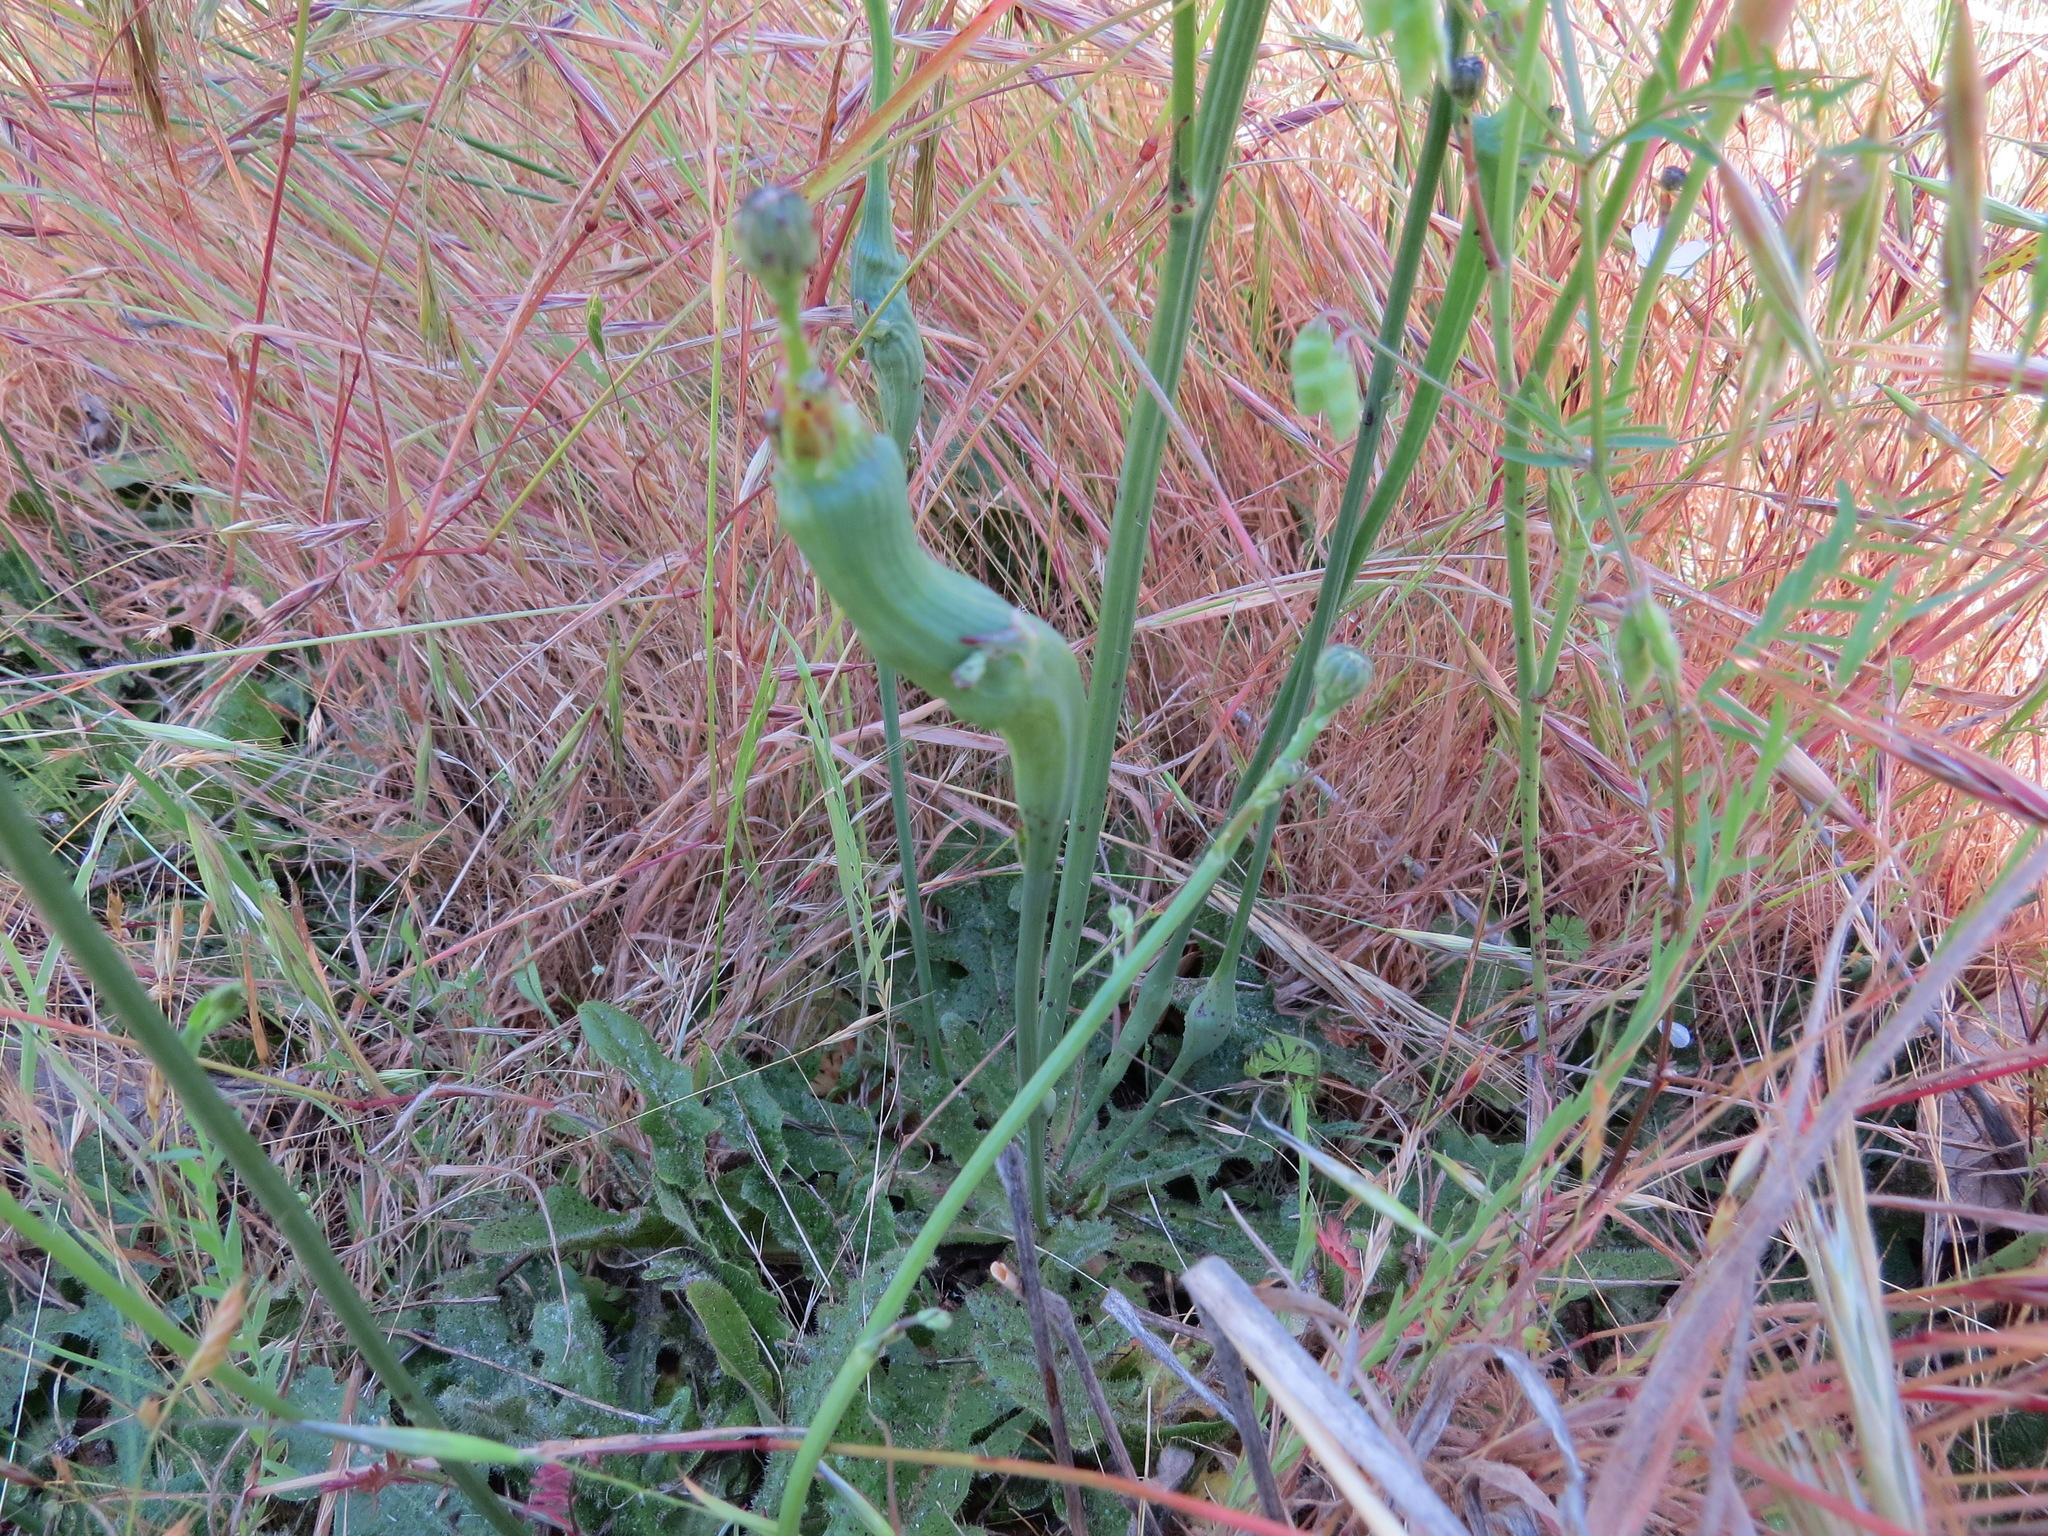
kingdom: Animalia
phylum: Arthropoda
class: Insecta
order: Hymenoptera
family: Cynipidae
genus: Phanacis
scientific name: Phanacis hypochoeridis
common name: Gall wasp
